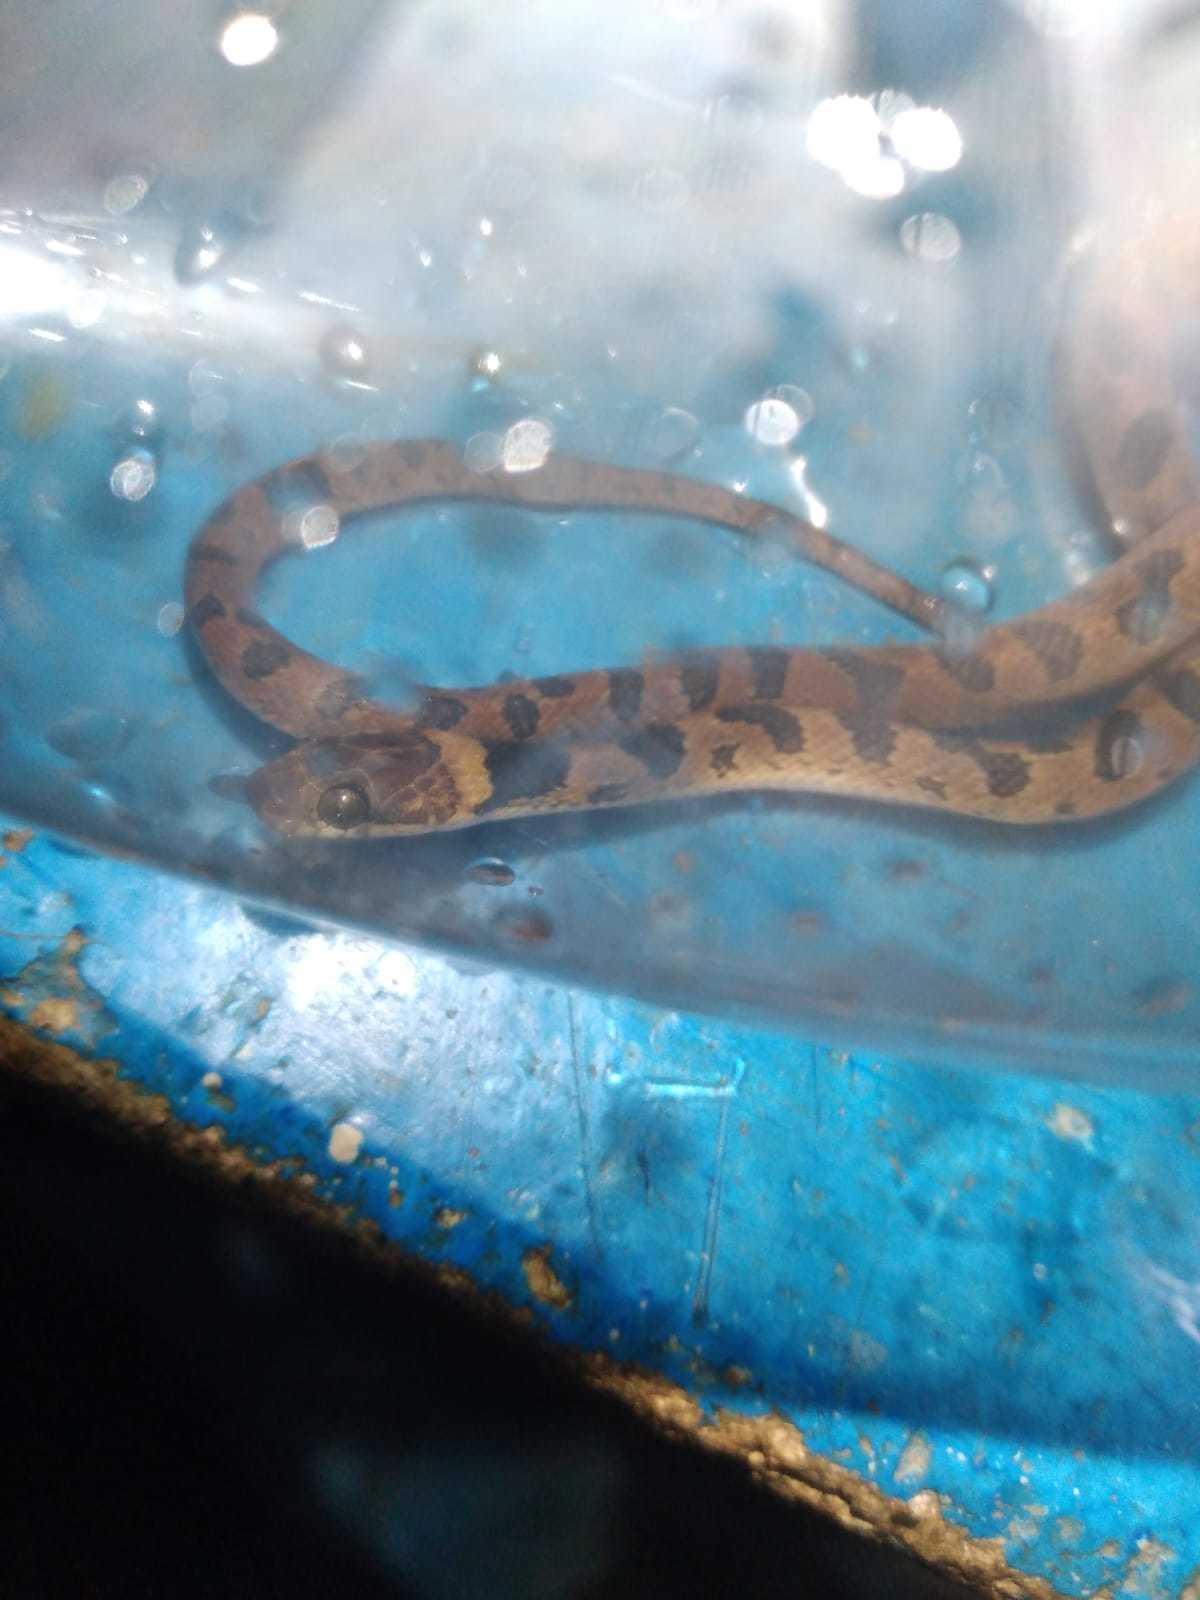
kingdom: Animalia
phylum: Chordata
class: Squamata
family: Colubridae
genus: Leptodeira
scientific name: Leptodeira maculata
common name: Southwestern cat-eyed snake
